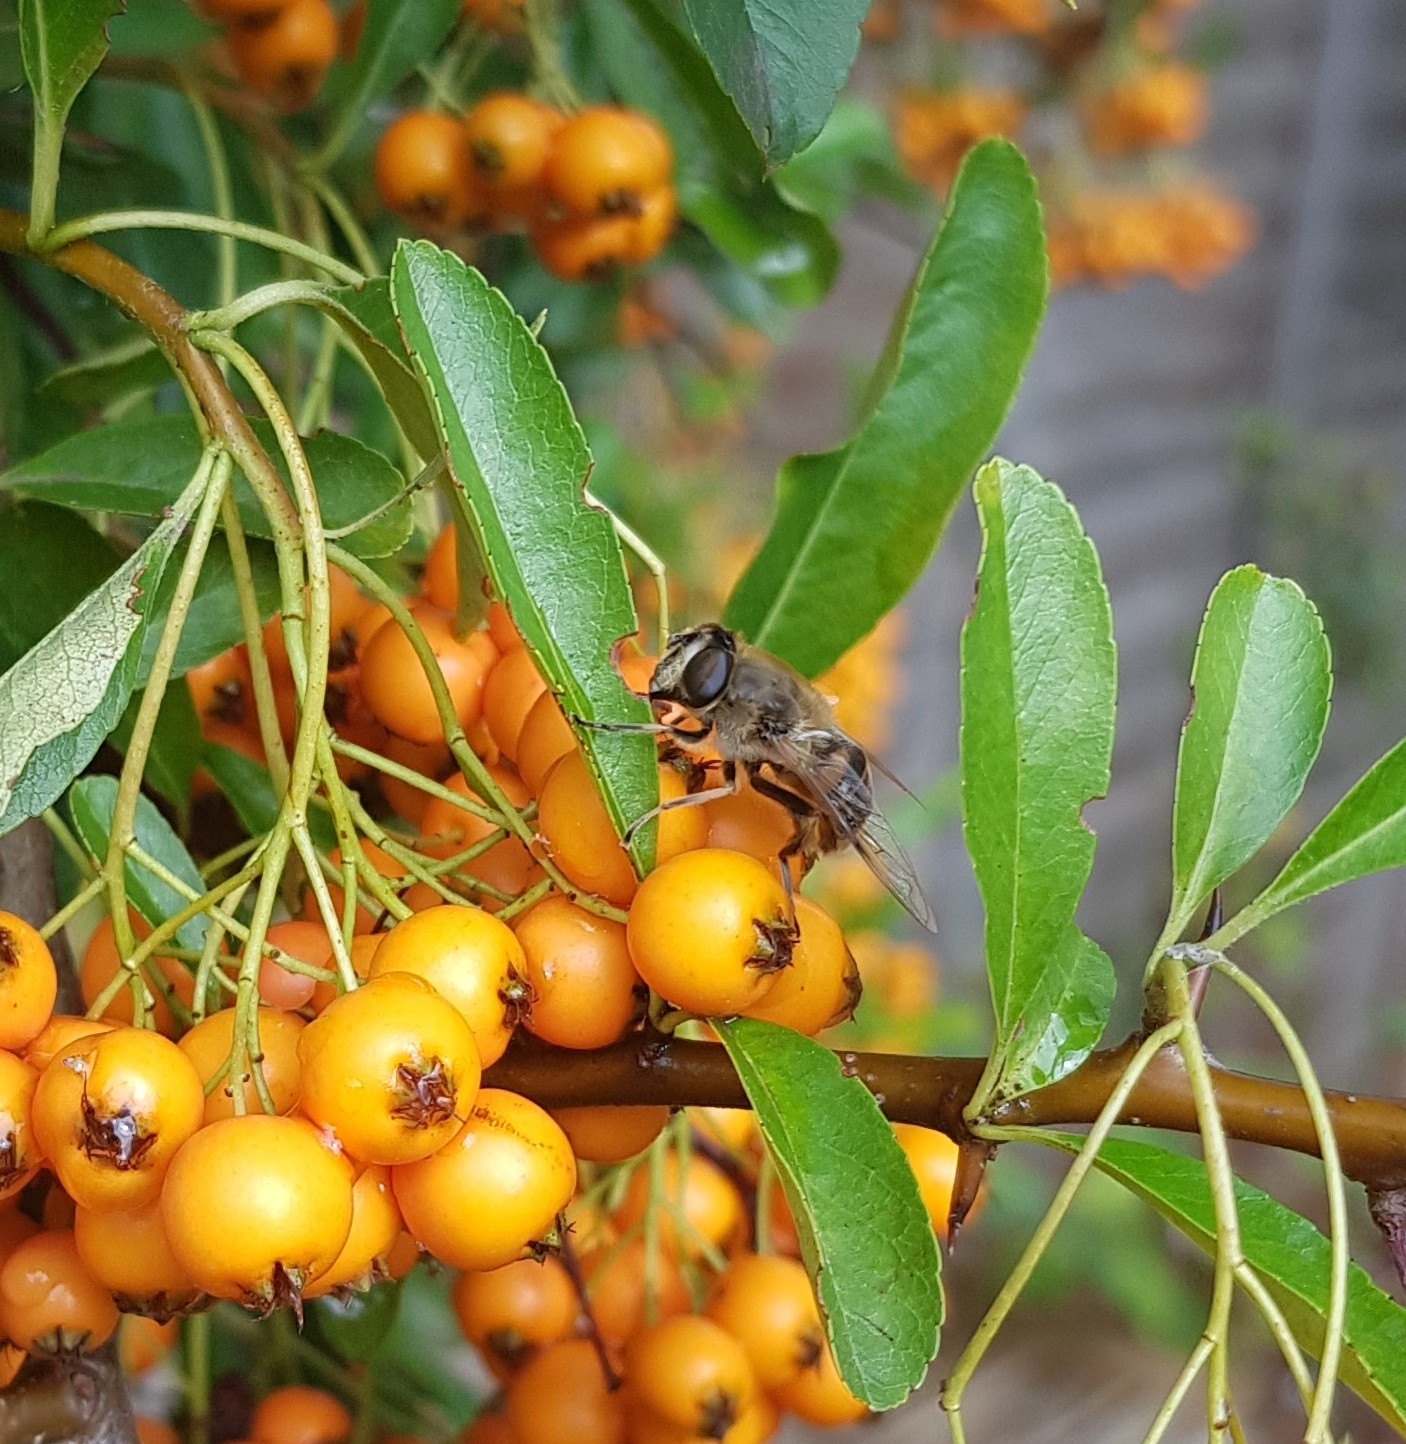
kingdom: Animalia
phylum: Arthropoda
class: Insecta
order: Diptera
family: Syrphidae
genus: Eristalis
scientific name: Eristalis tenax
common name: Drone fly
